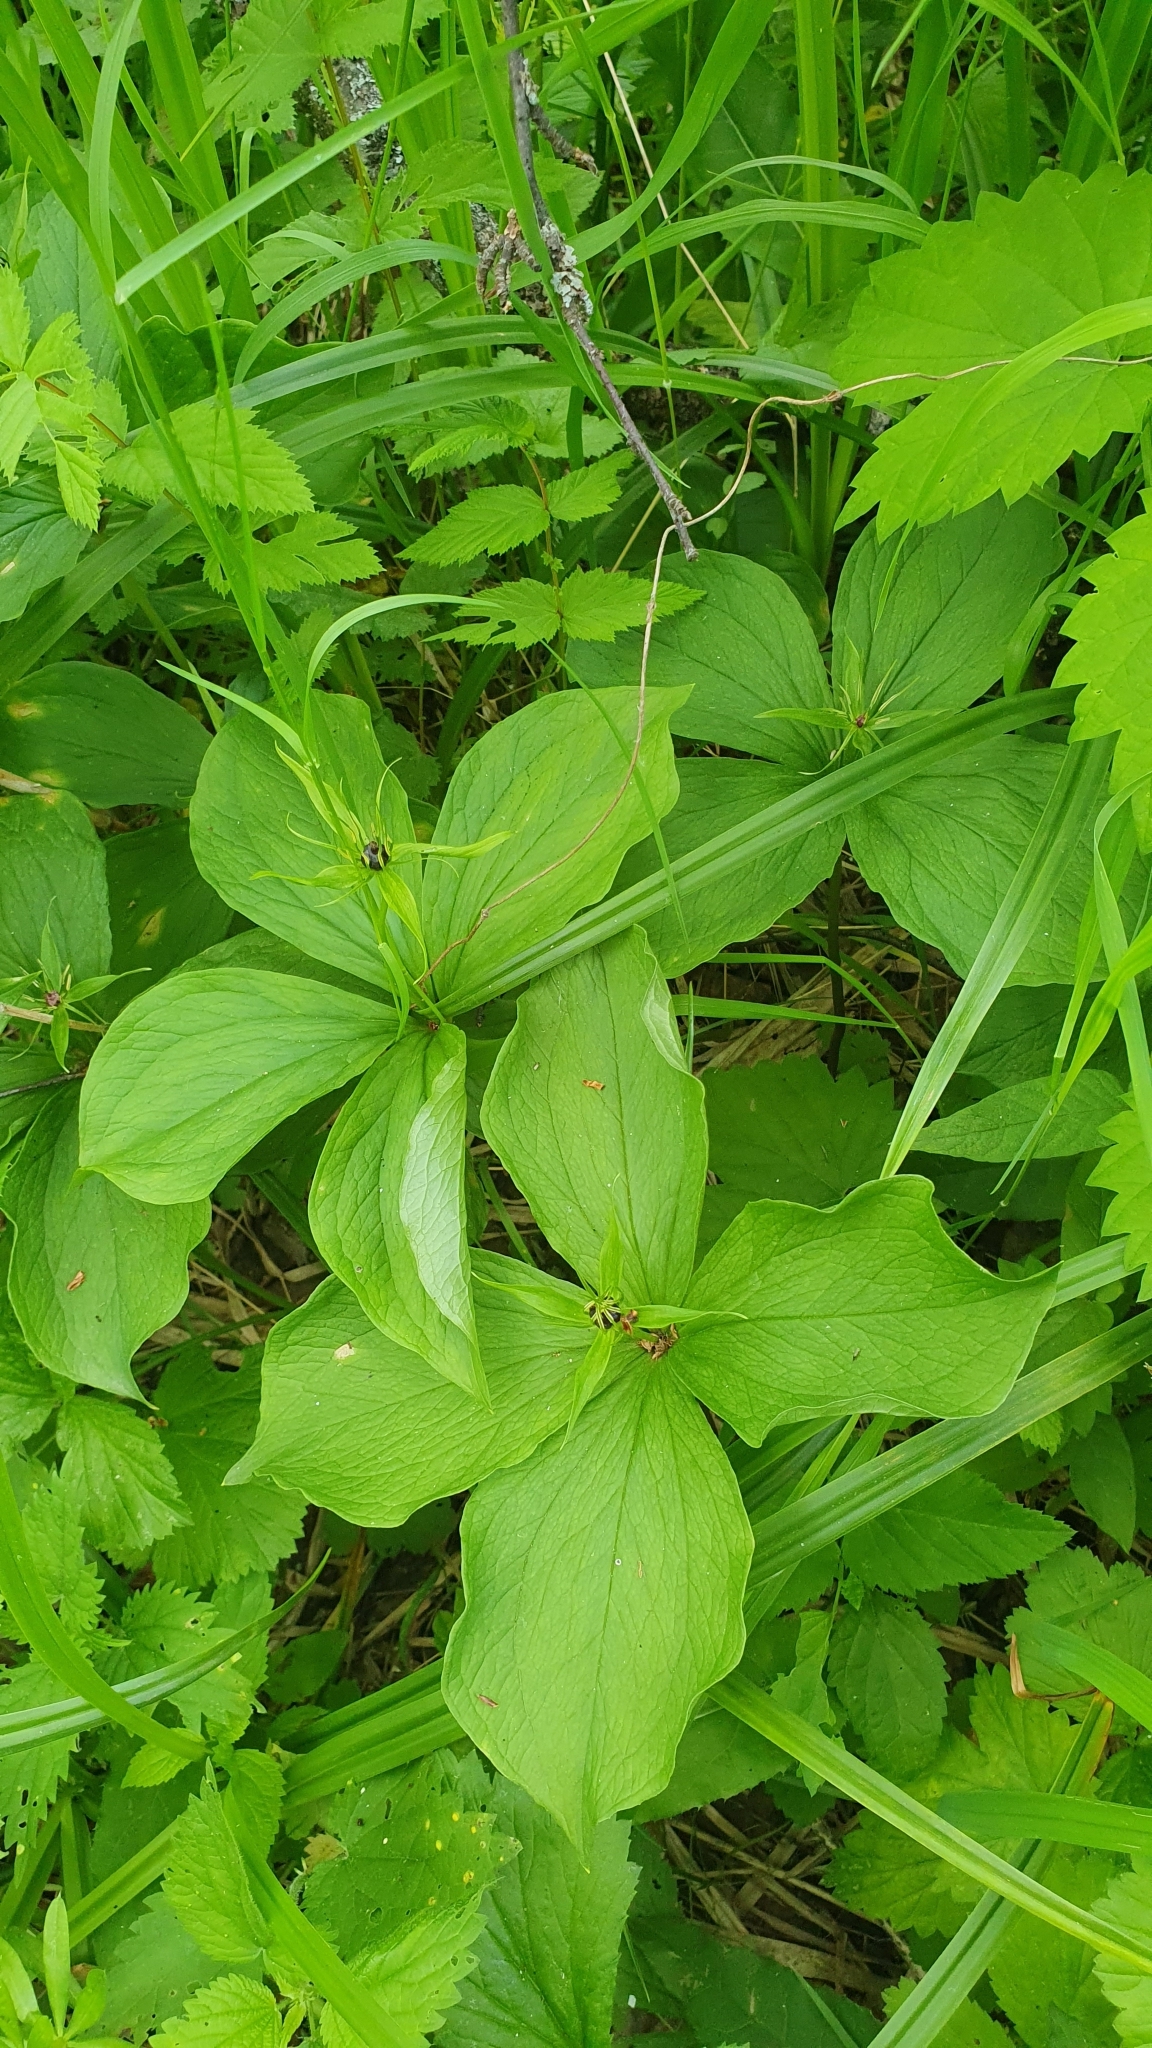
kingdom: Plantae
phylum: Tracheophyta
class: Liliopsida
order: Liliales
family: Melanthiaceae
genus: Paris
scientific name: Paris quadrifolia
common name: Herb-paris
